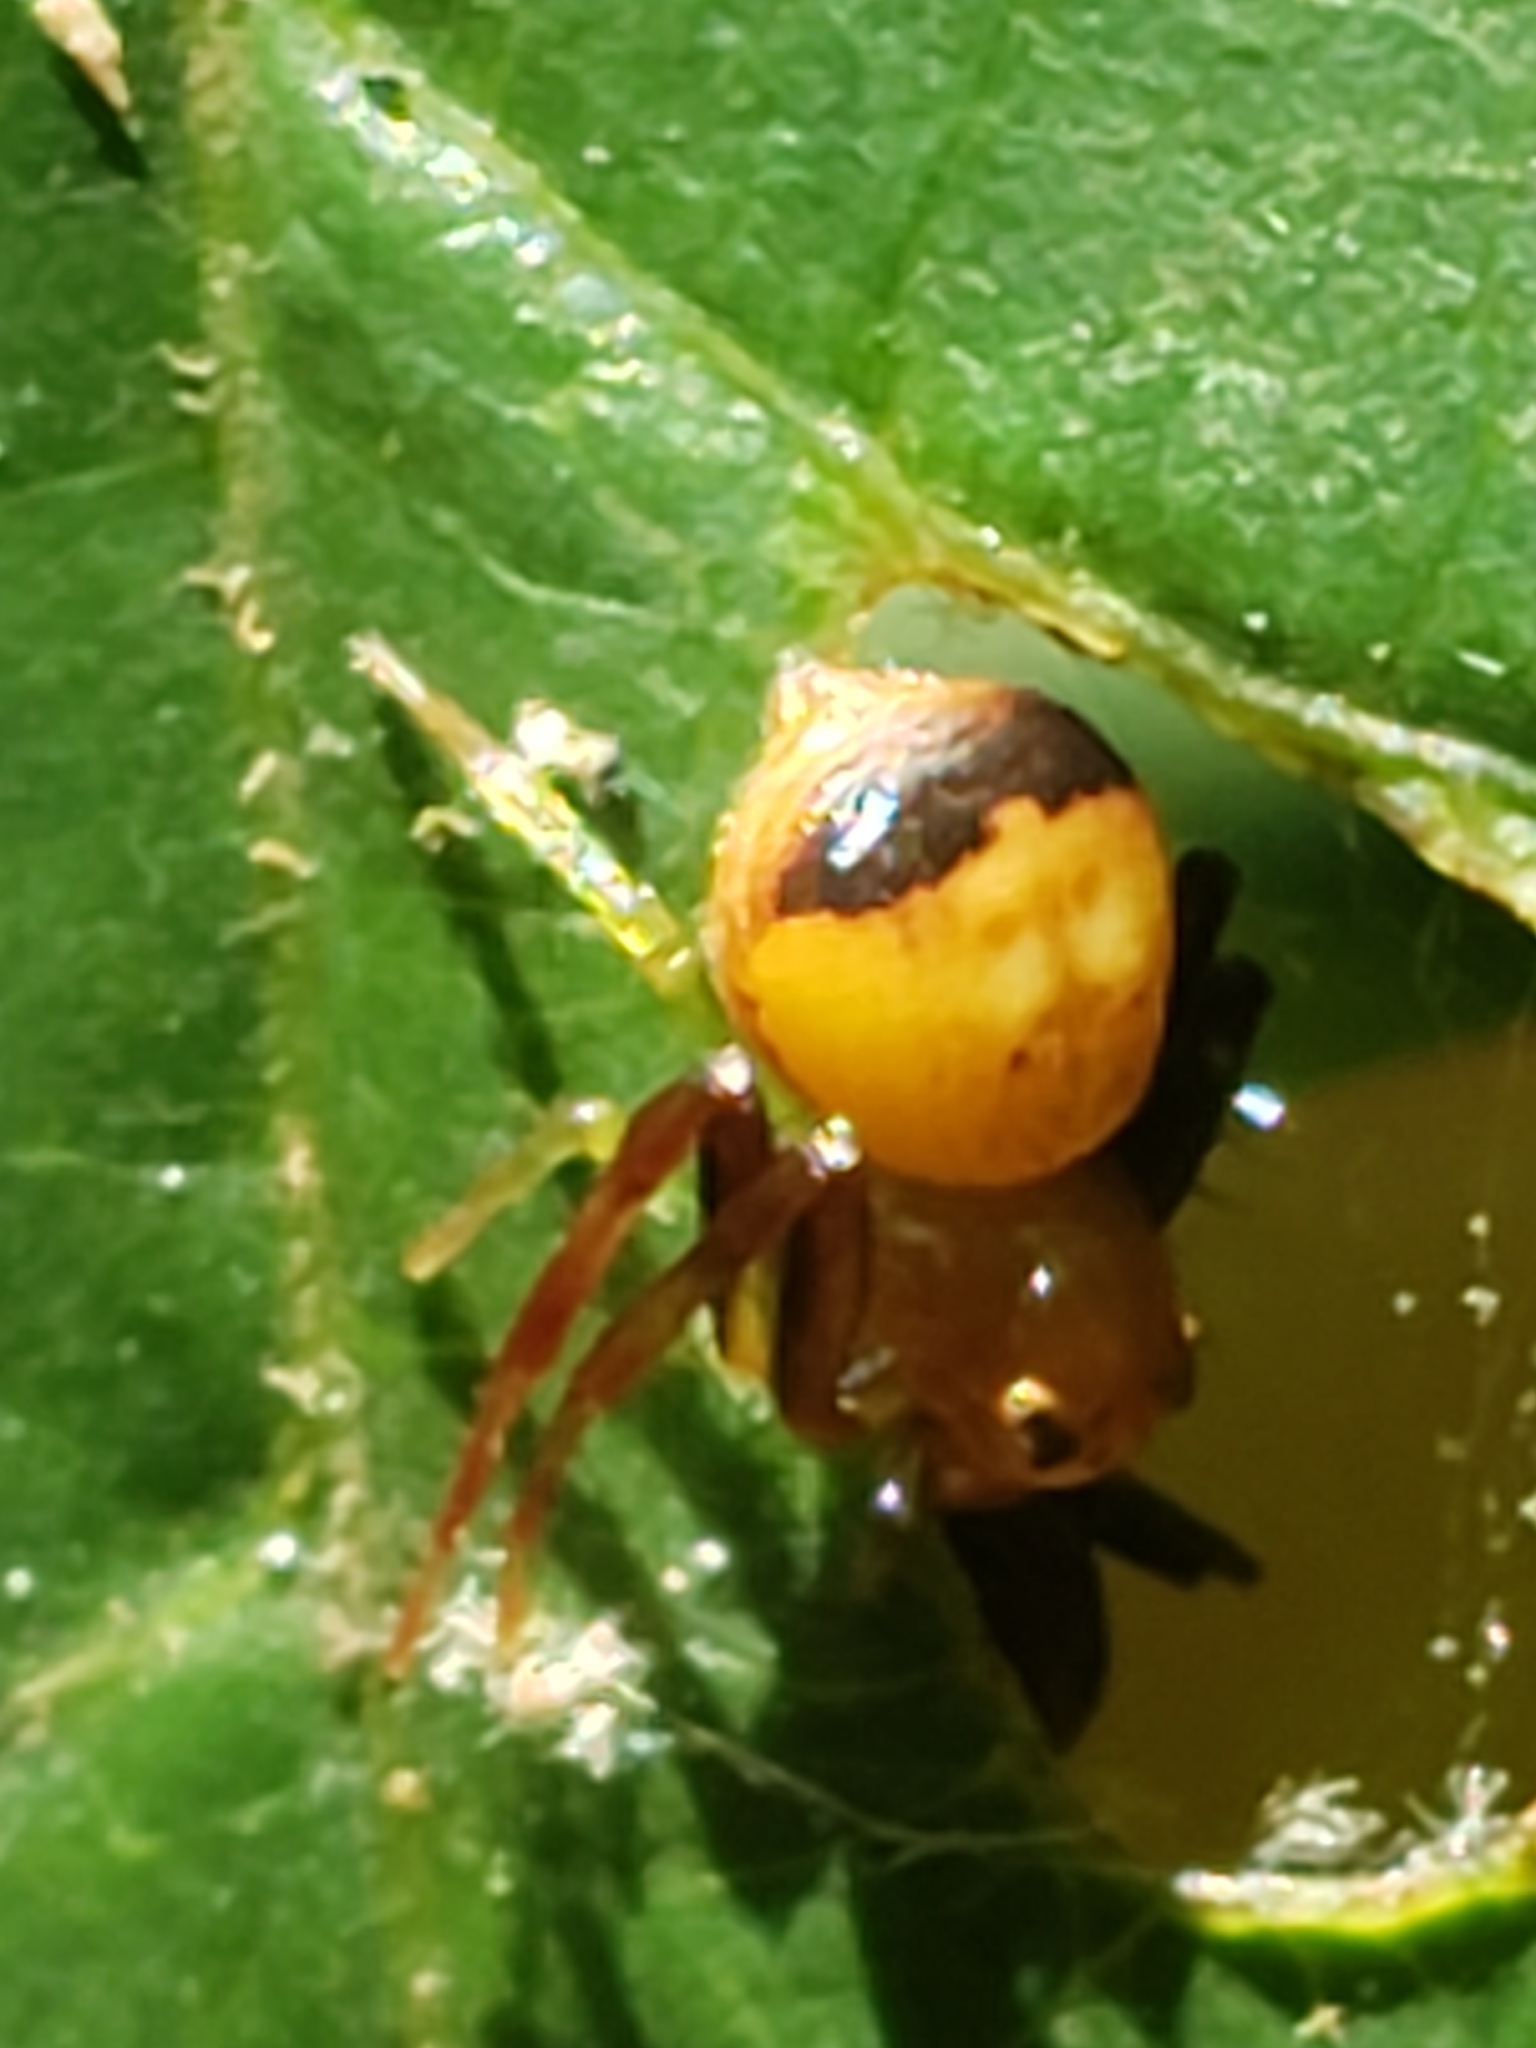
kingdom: Animalia
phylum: Arthropoda
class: Arachnida
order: Araneae
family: Thomisidae
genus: Synema
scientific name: Synema parvulum
